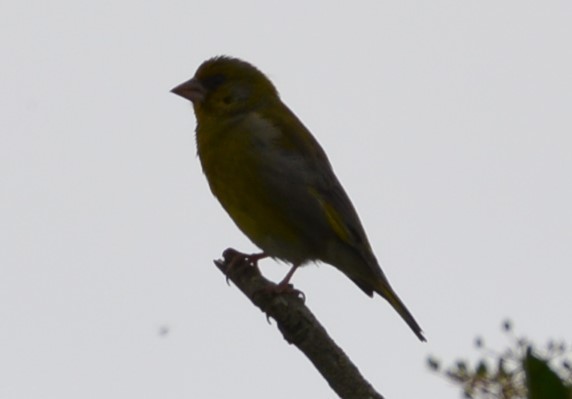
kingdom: Plantae
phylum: Tracheophyta
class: Liliopsida
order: Poales
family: Poaceae
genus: Chloris
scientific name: Chloris chloris
